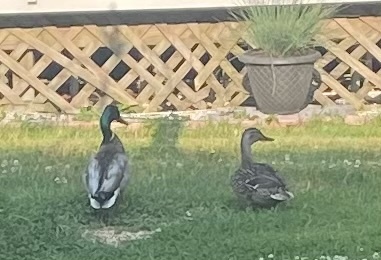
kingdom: Animalia
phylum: Chordata
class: Aves
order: Anseriformes
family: Anatidae
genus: Anas
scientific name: Anas platyrhynchos
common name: Mallard
